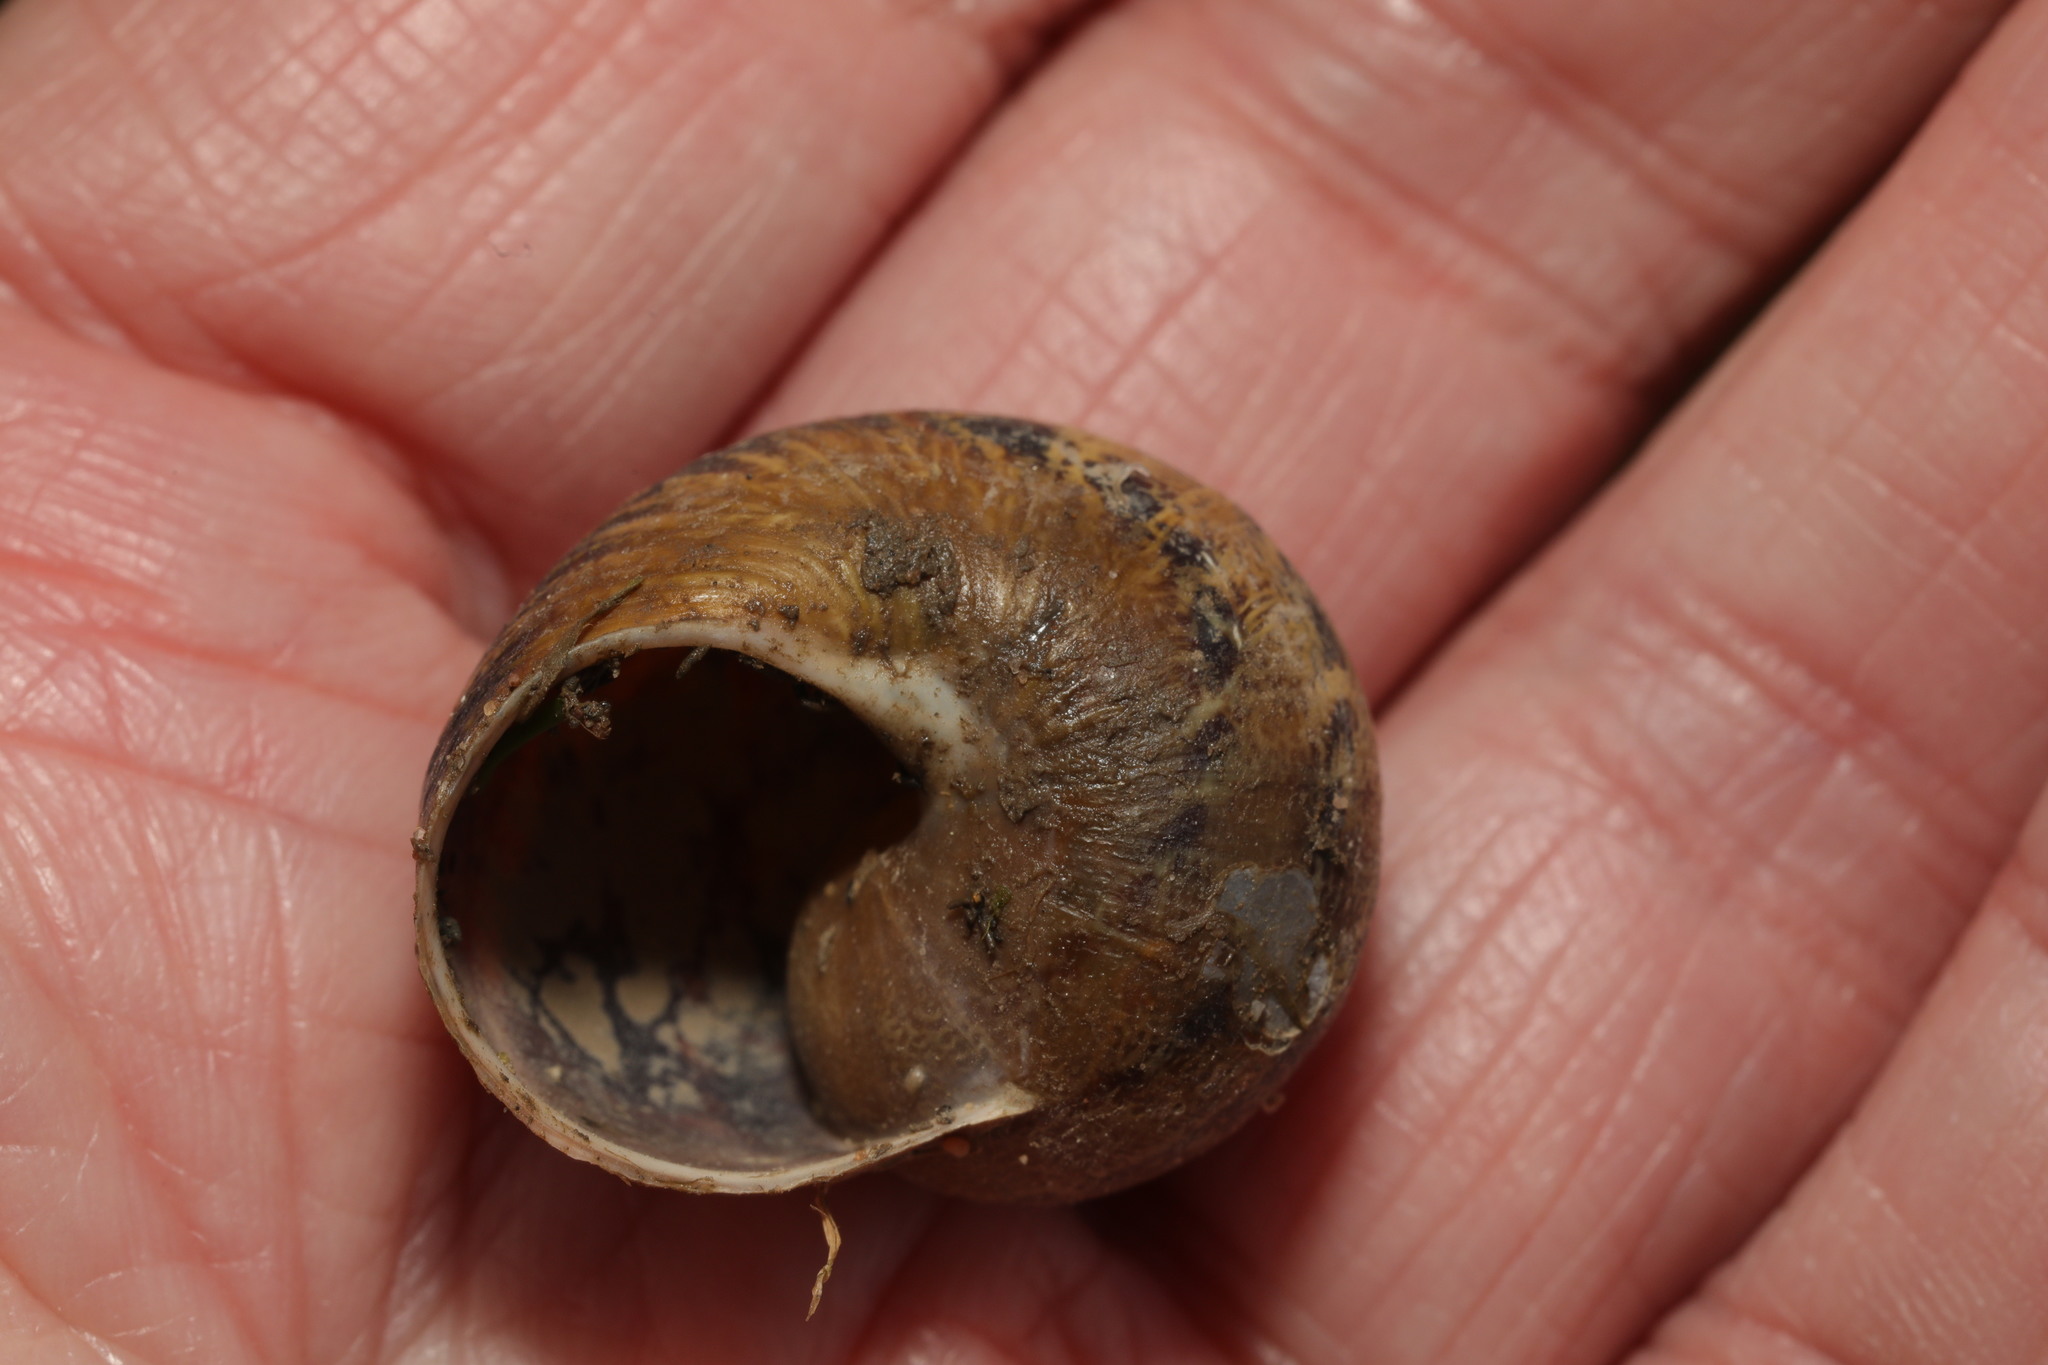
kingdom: Animalia
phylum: Mollusca
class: Gastropoda
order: Stylommatophora
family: Helicidae
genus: Cornu
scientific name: Cornu aspersum
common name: Brown garden snail
